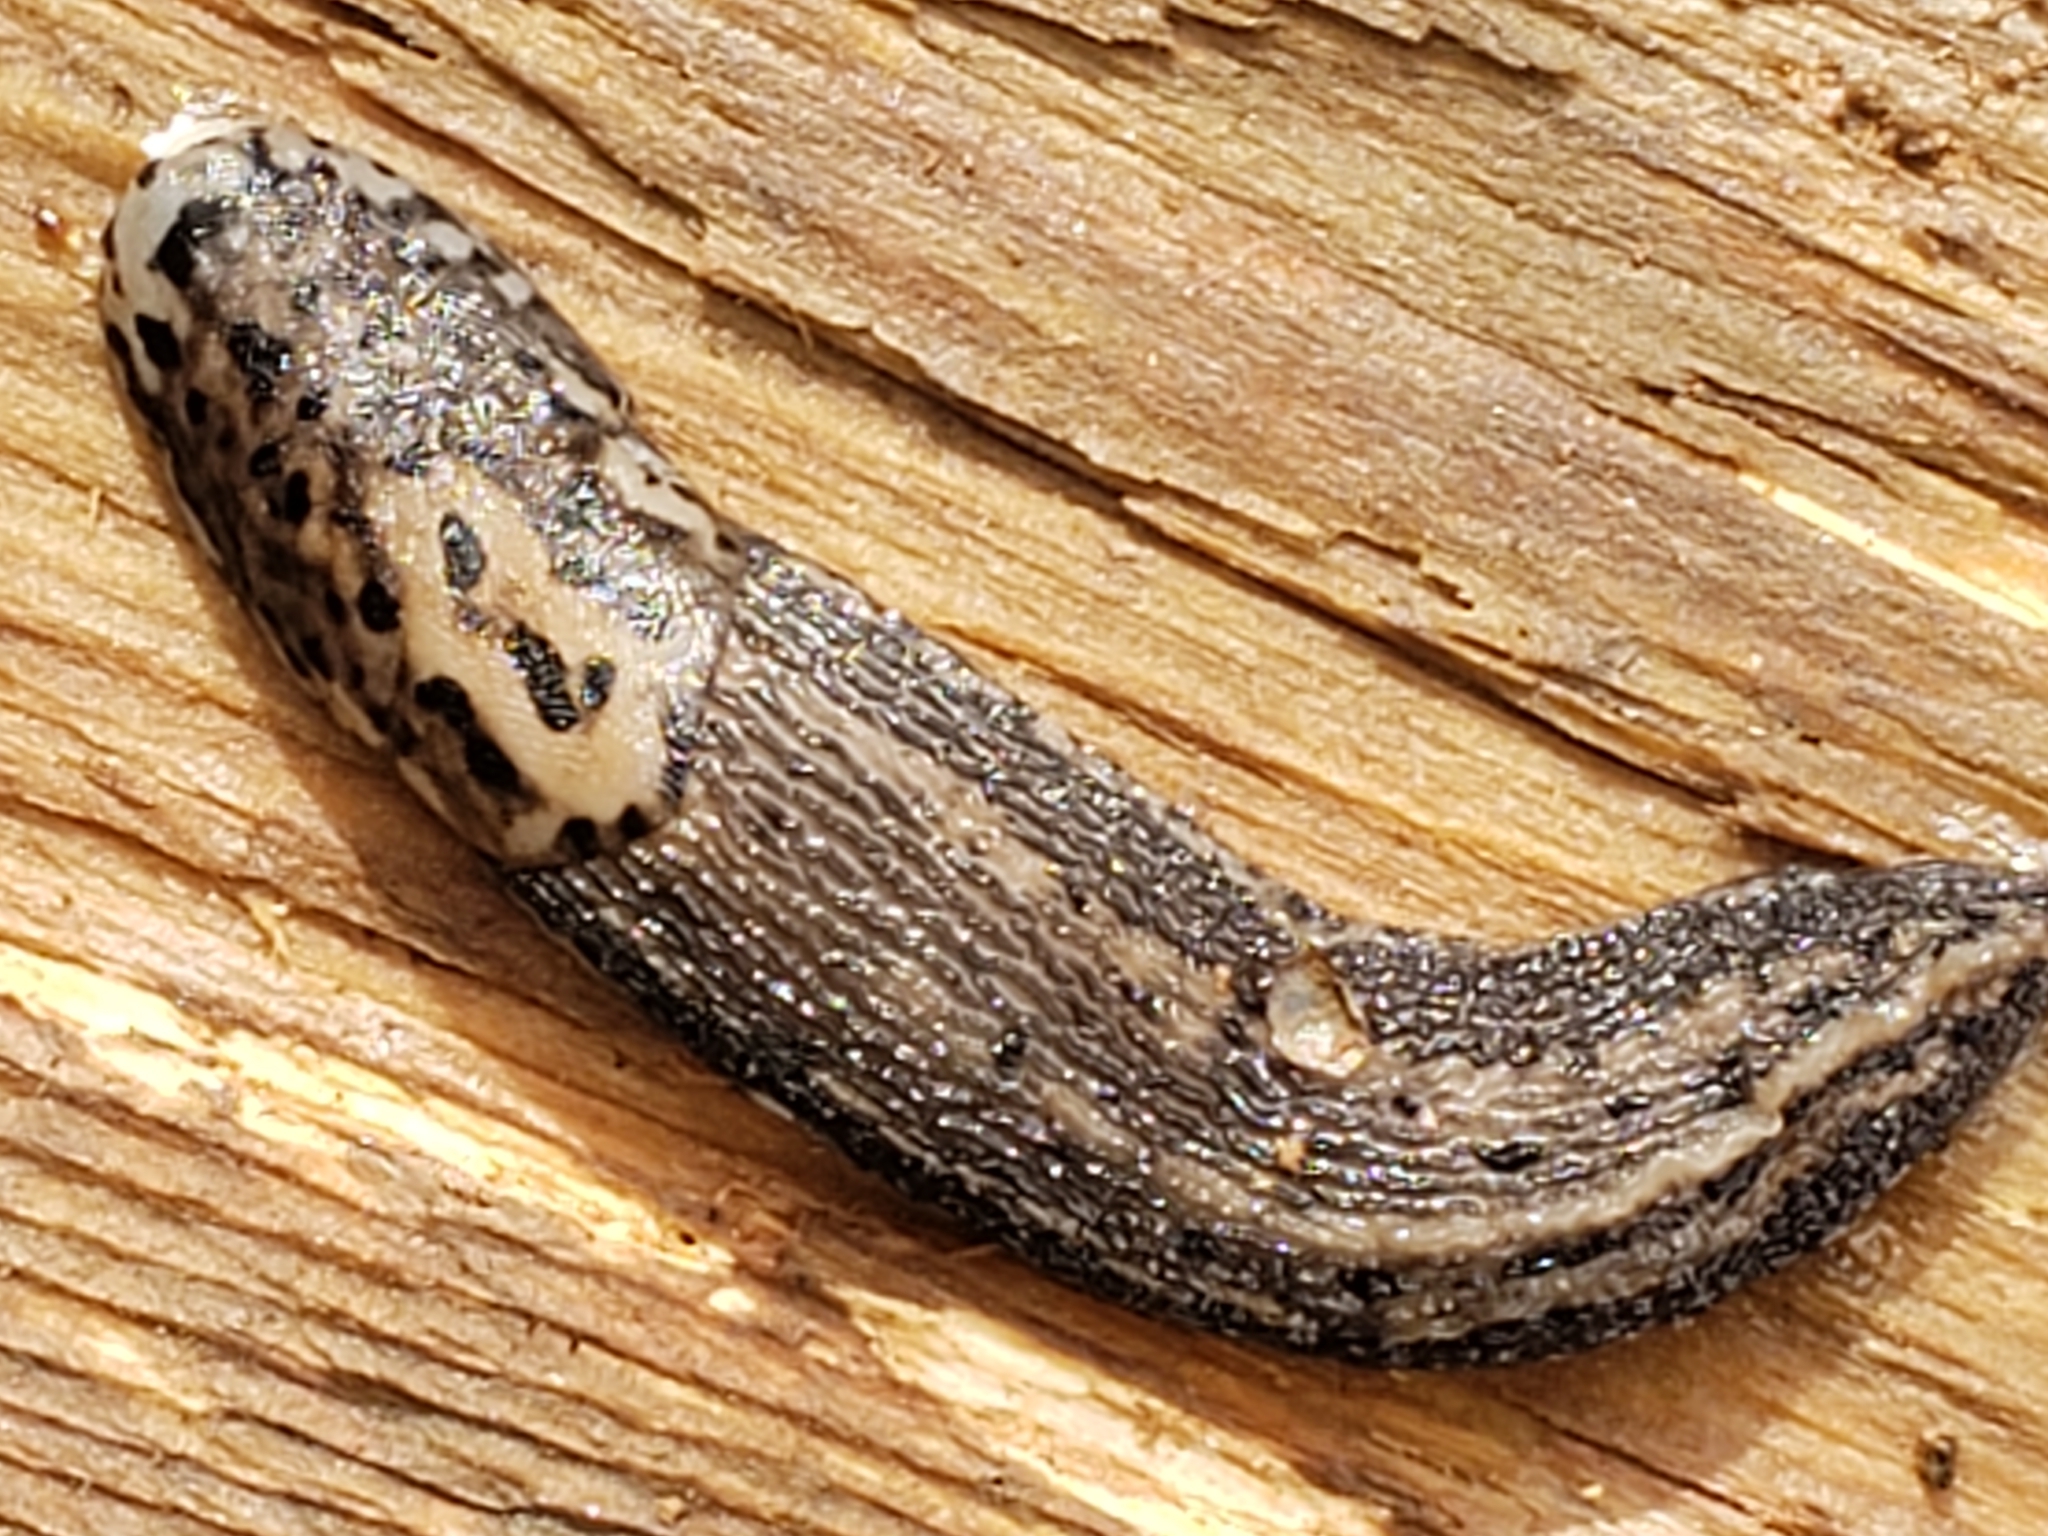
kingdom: Animalia
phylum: Mollusca
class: Gastropoda
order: Stylommatophora
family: Limacidae
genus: Limax
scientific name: Limax maximus
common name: Great grey slug
